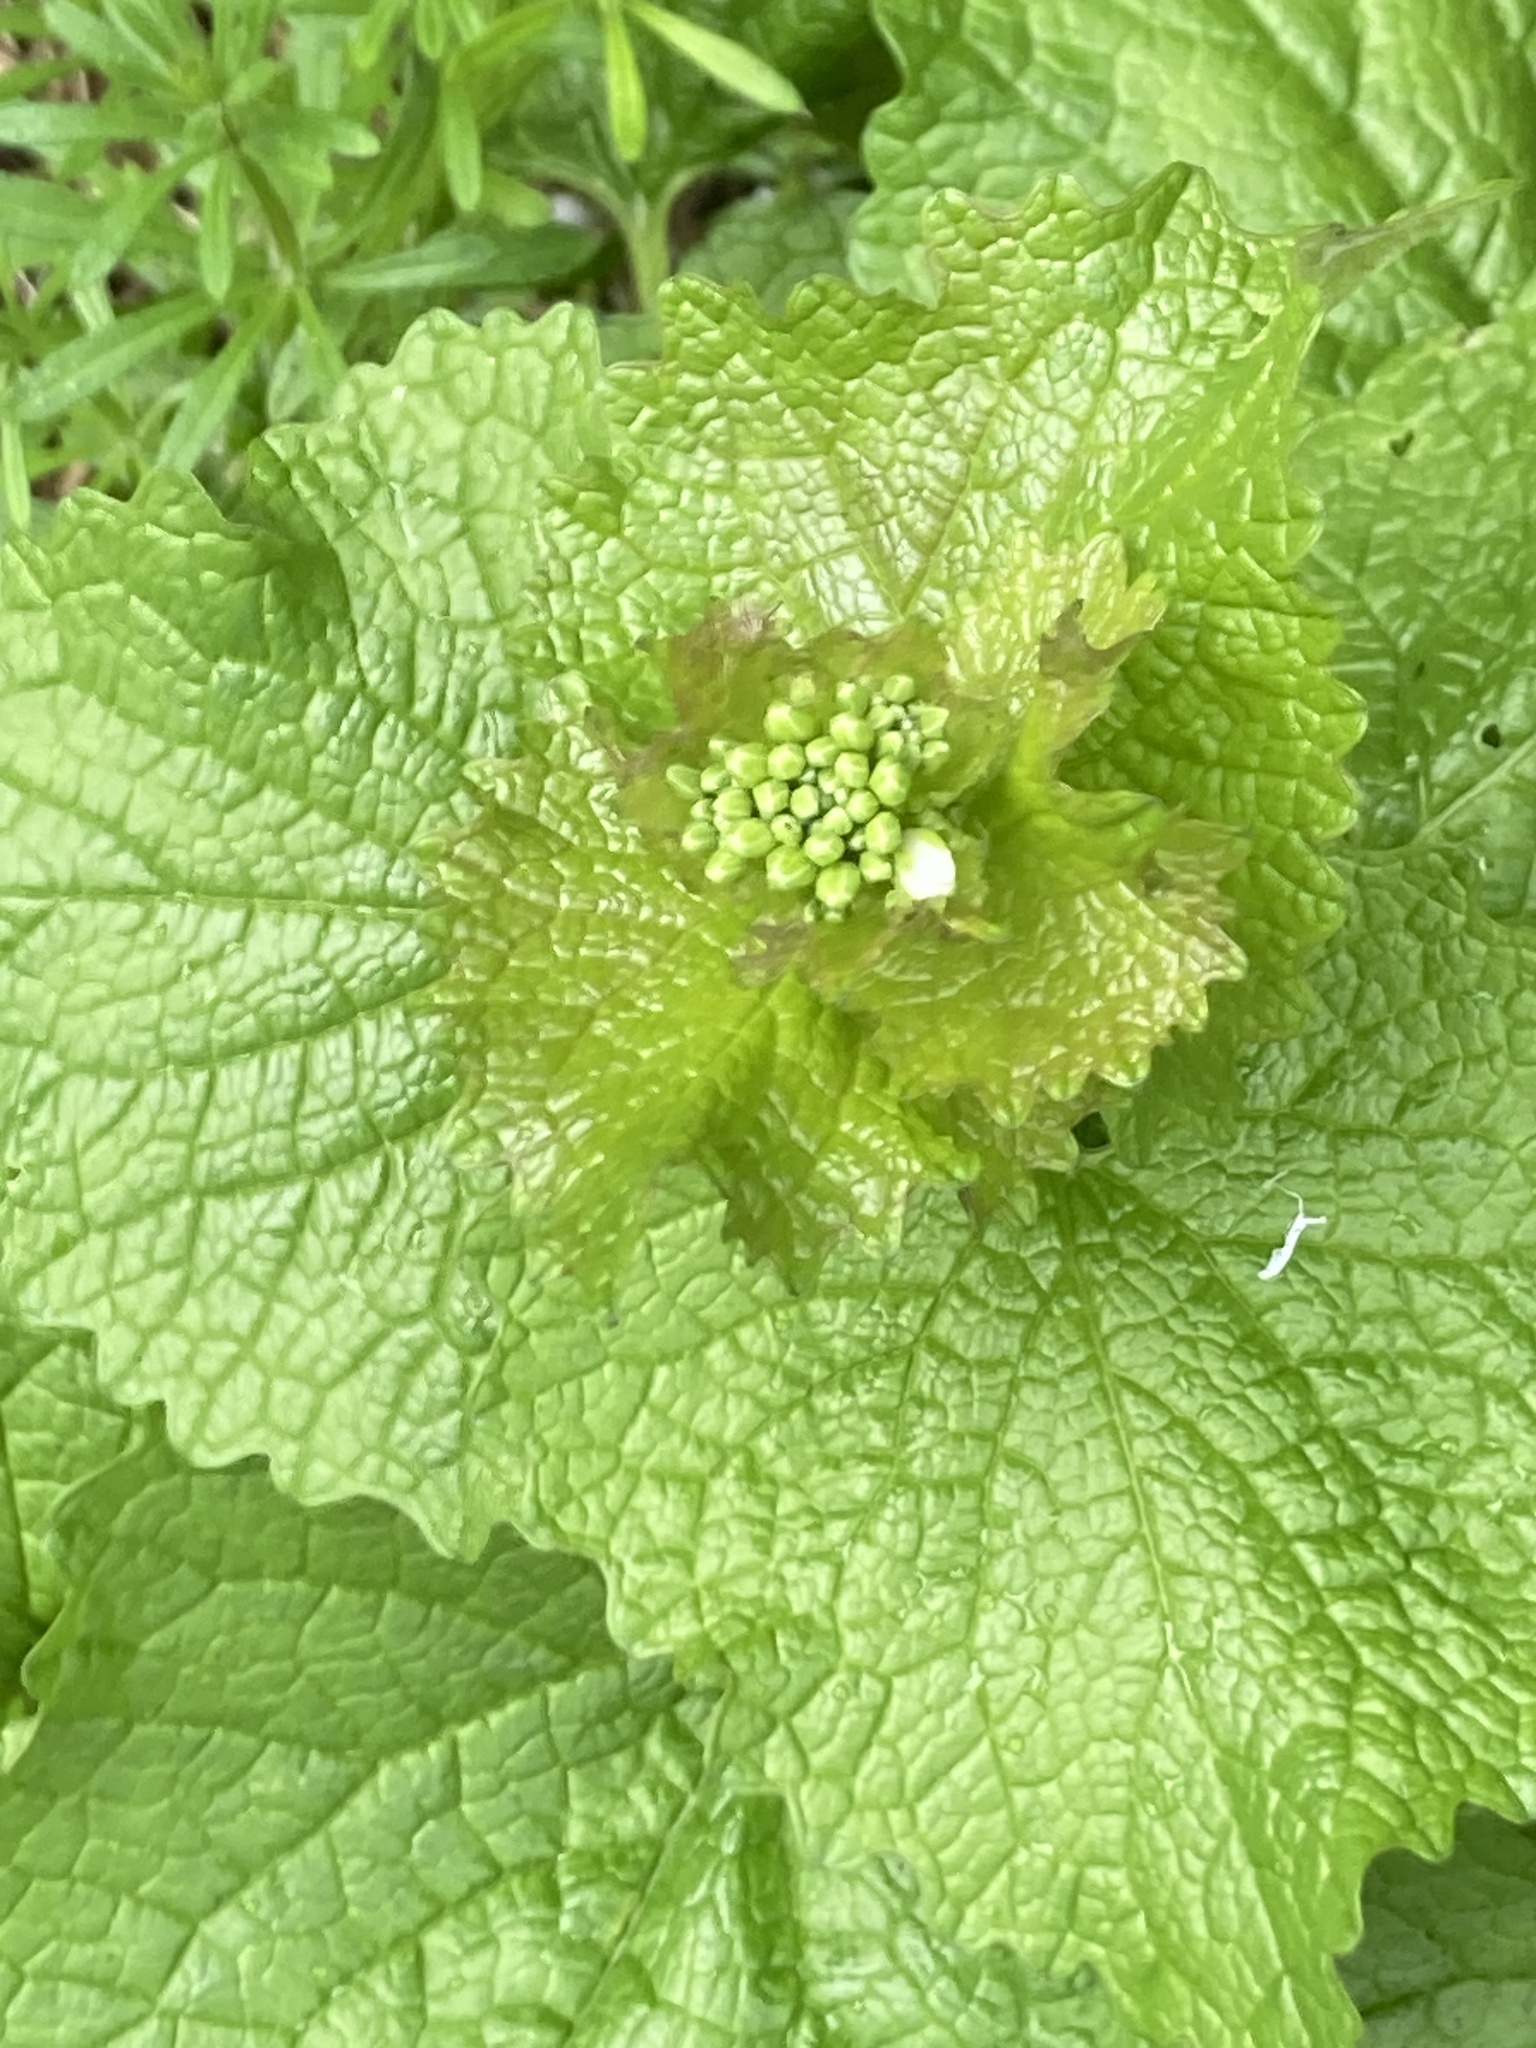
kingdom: Plantae
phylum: Tracheophyta
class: Magnoliopsida
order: Brassicales
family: Brassicaceae
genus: Alliaria
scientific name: Alliaria petiolata
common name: Garlic mustard
